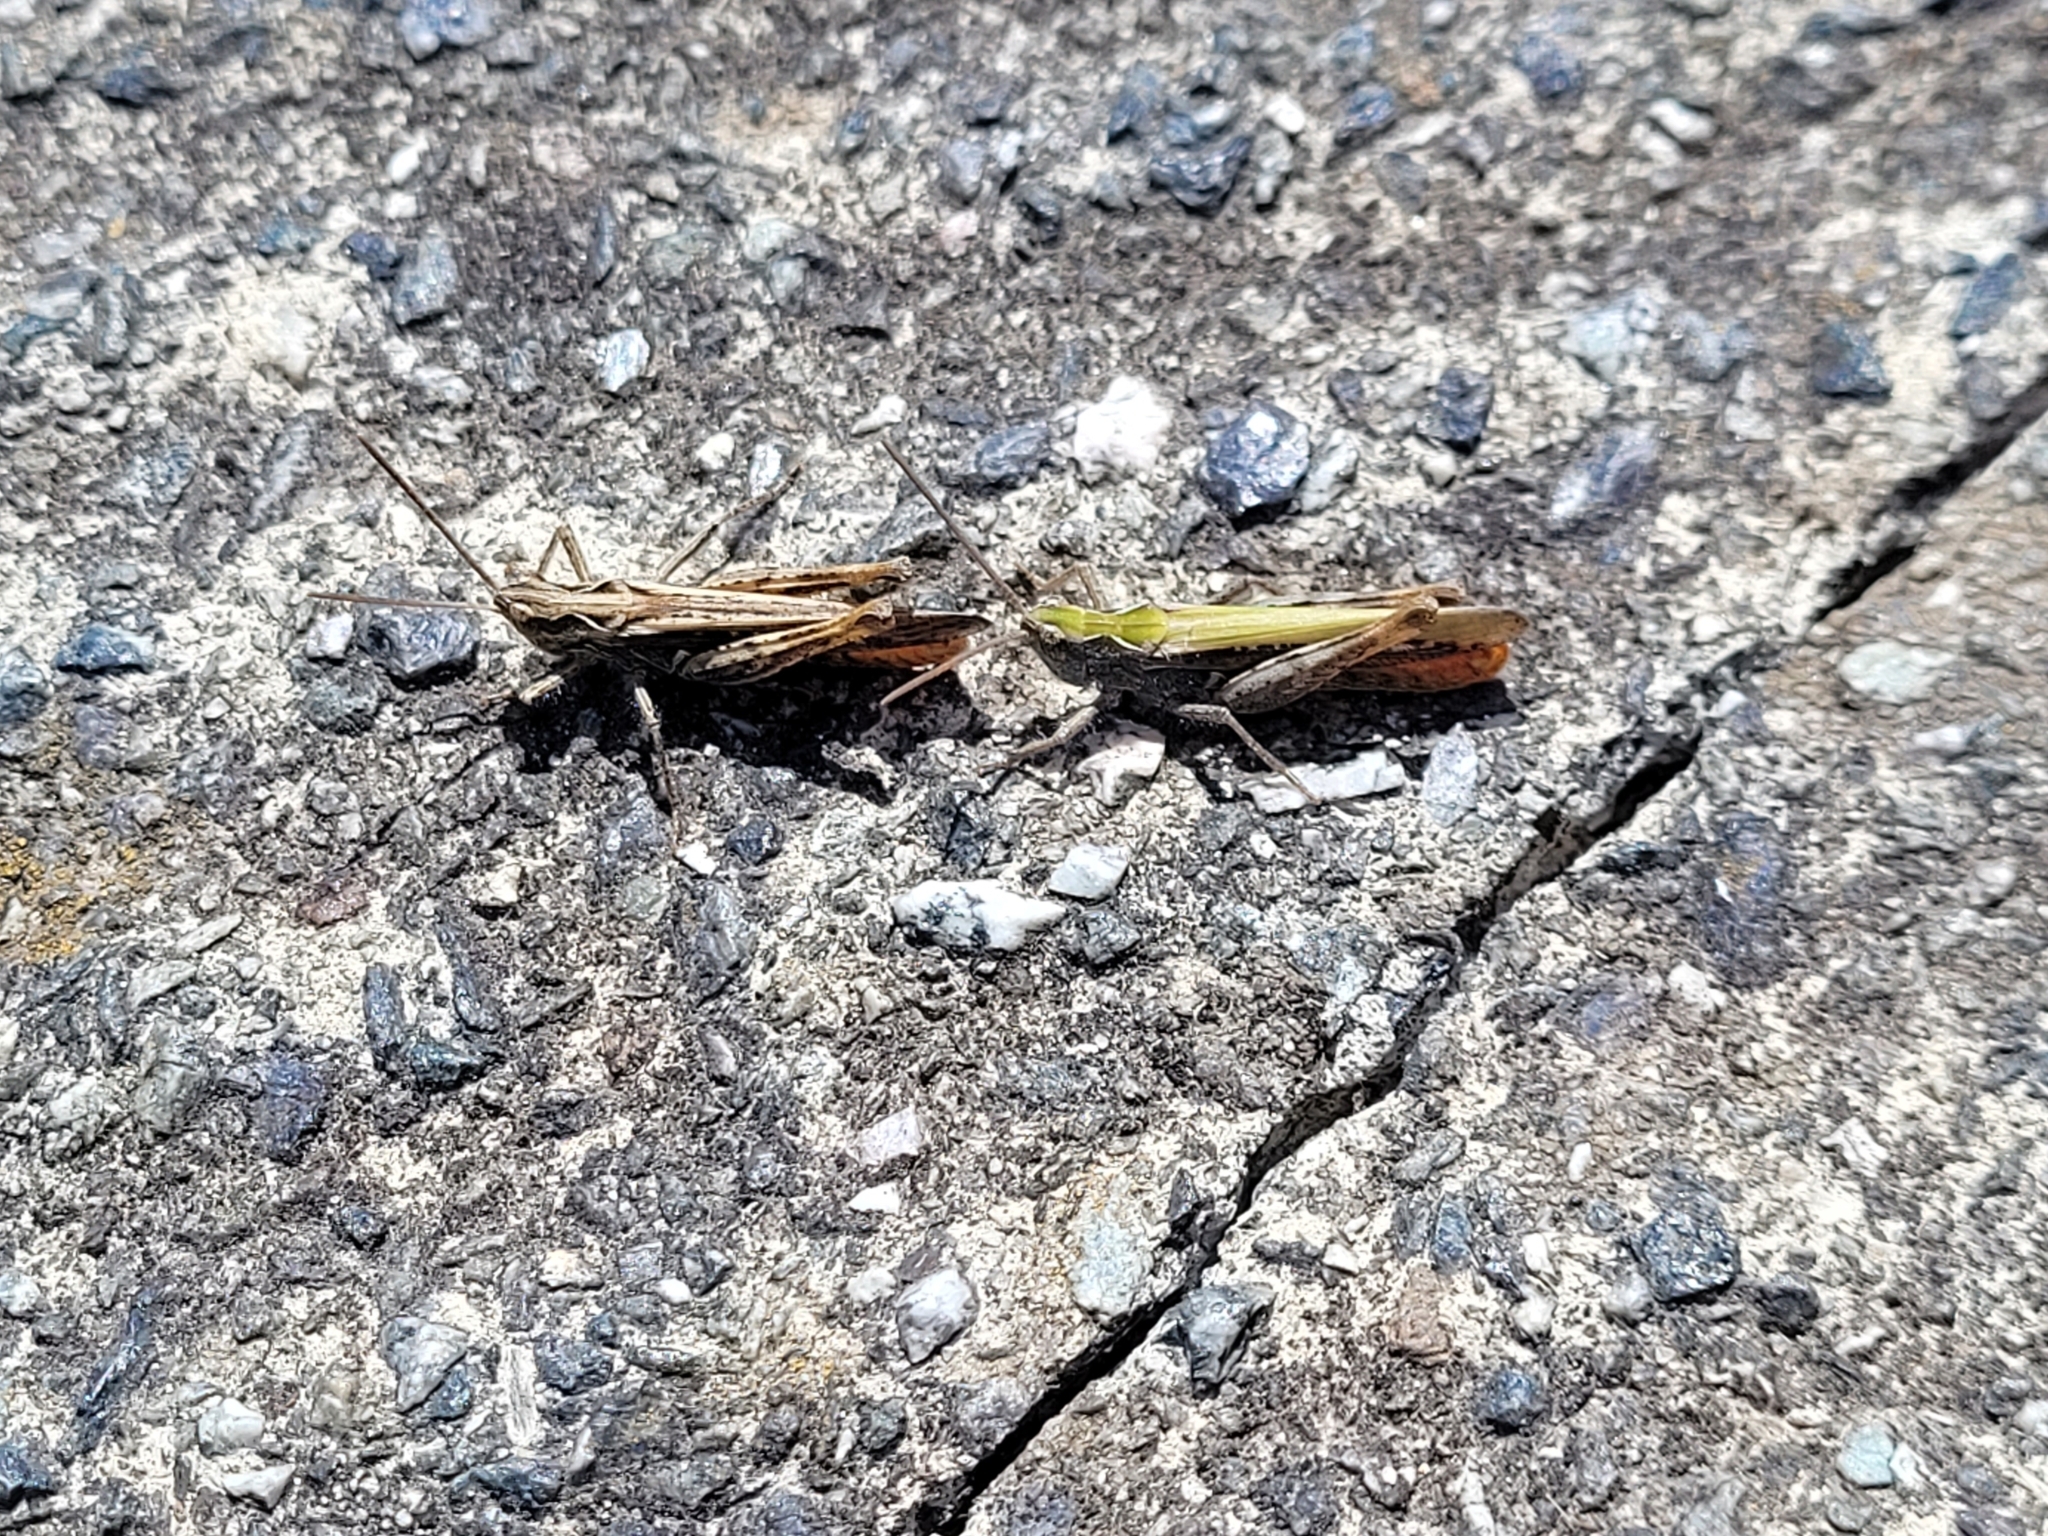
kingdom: Animalia
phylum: Arthropoda
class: Insecta
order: Orthoptera
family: Acrididae
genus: Chorthippus
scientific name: Chorthippus brunneus
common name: Field grasshopper
